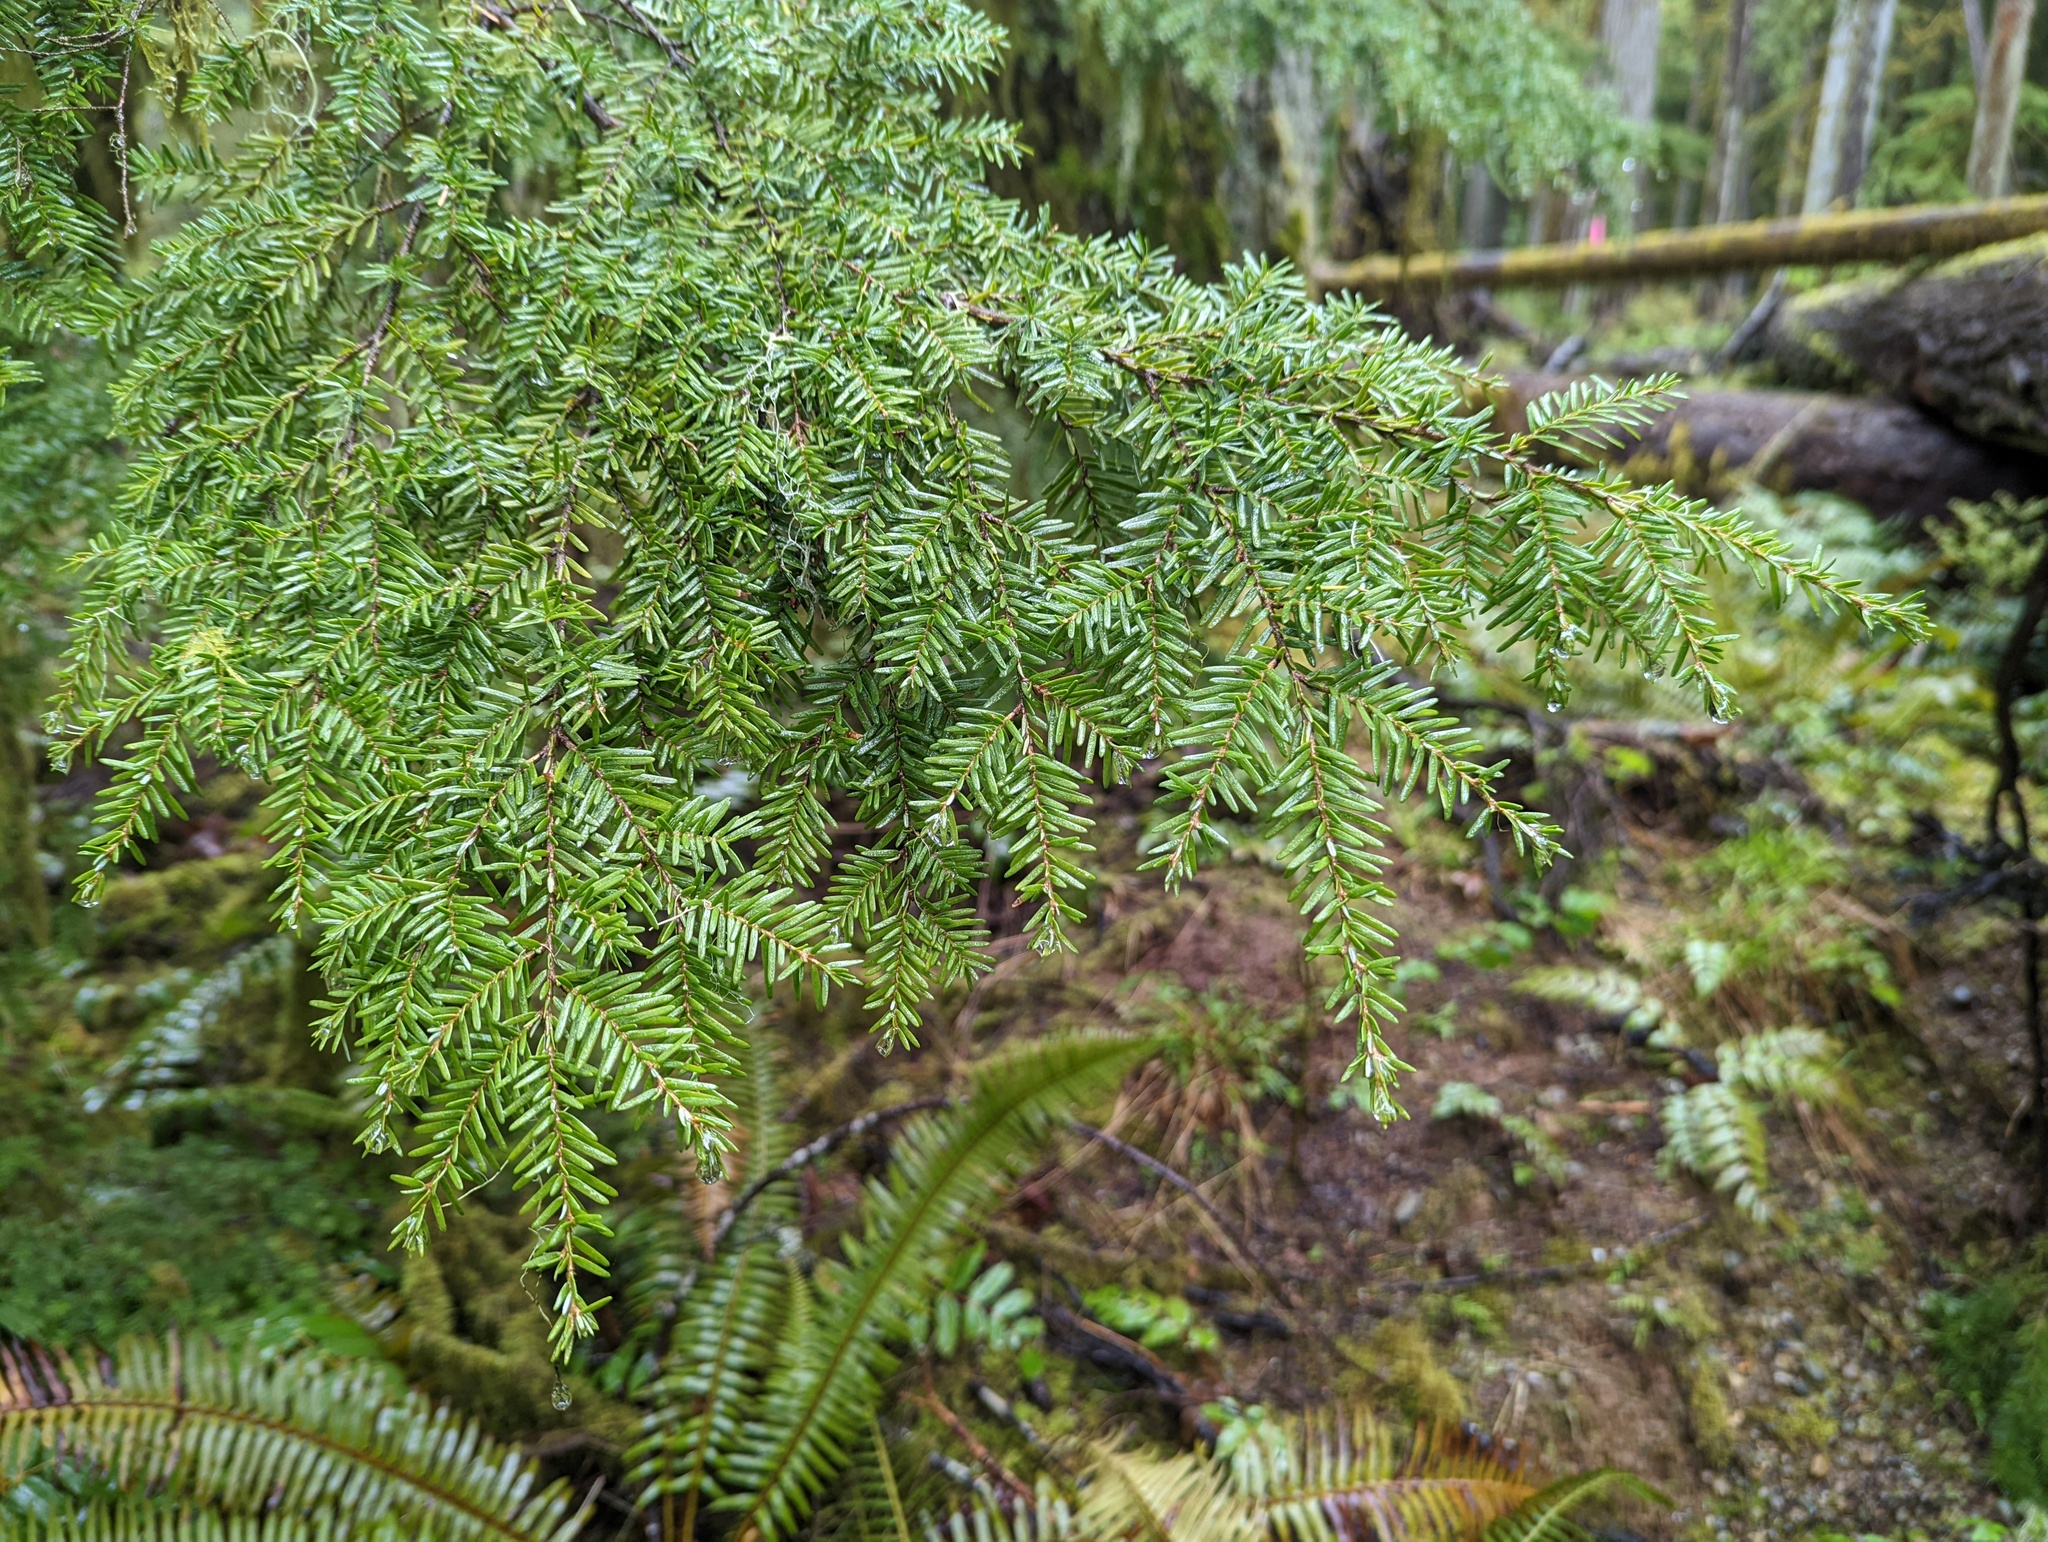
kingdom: Plantae
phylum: Tracheophyta
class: Pinopsida
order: Pinales
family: Pinaceae
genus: Tsuga
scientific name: Tsuga heterophylla
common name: Western hemlock
